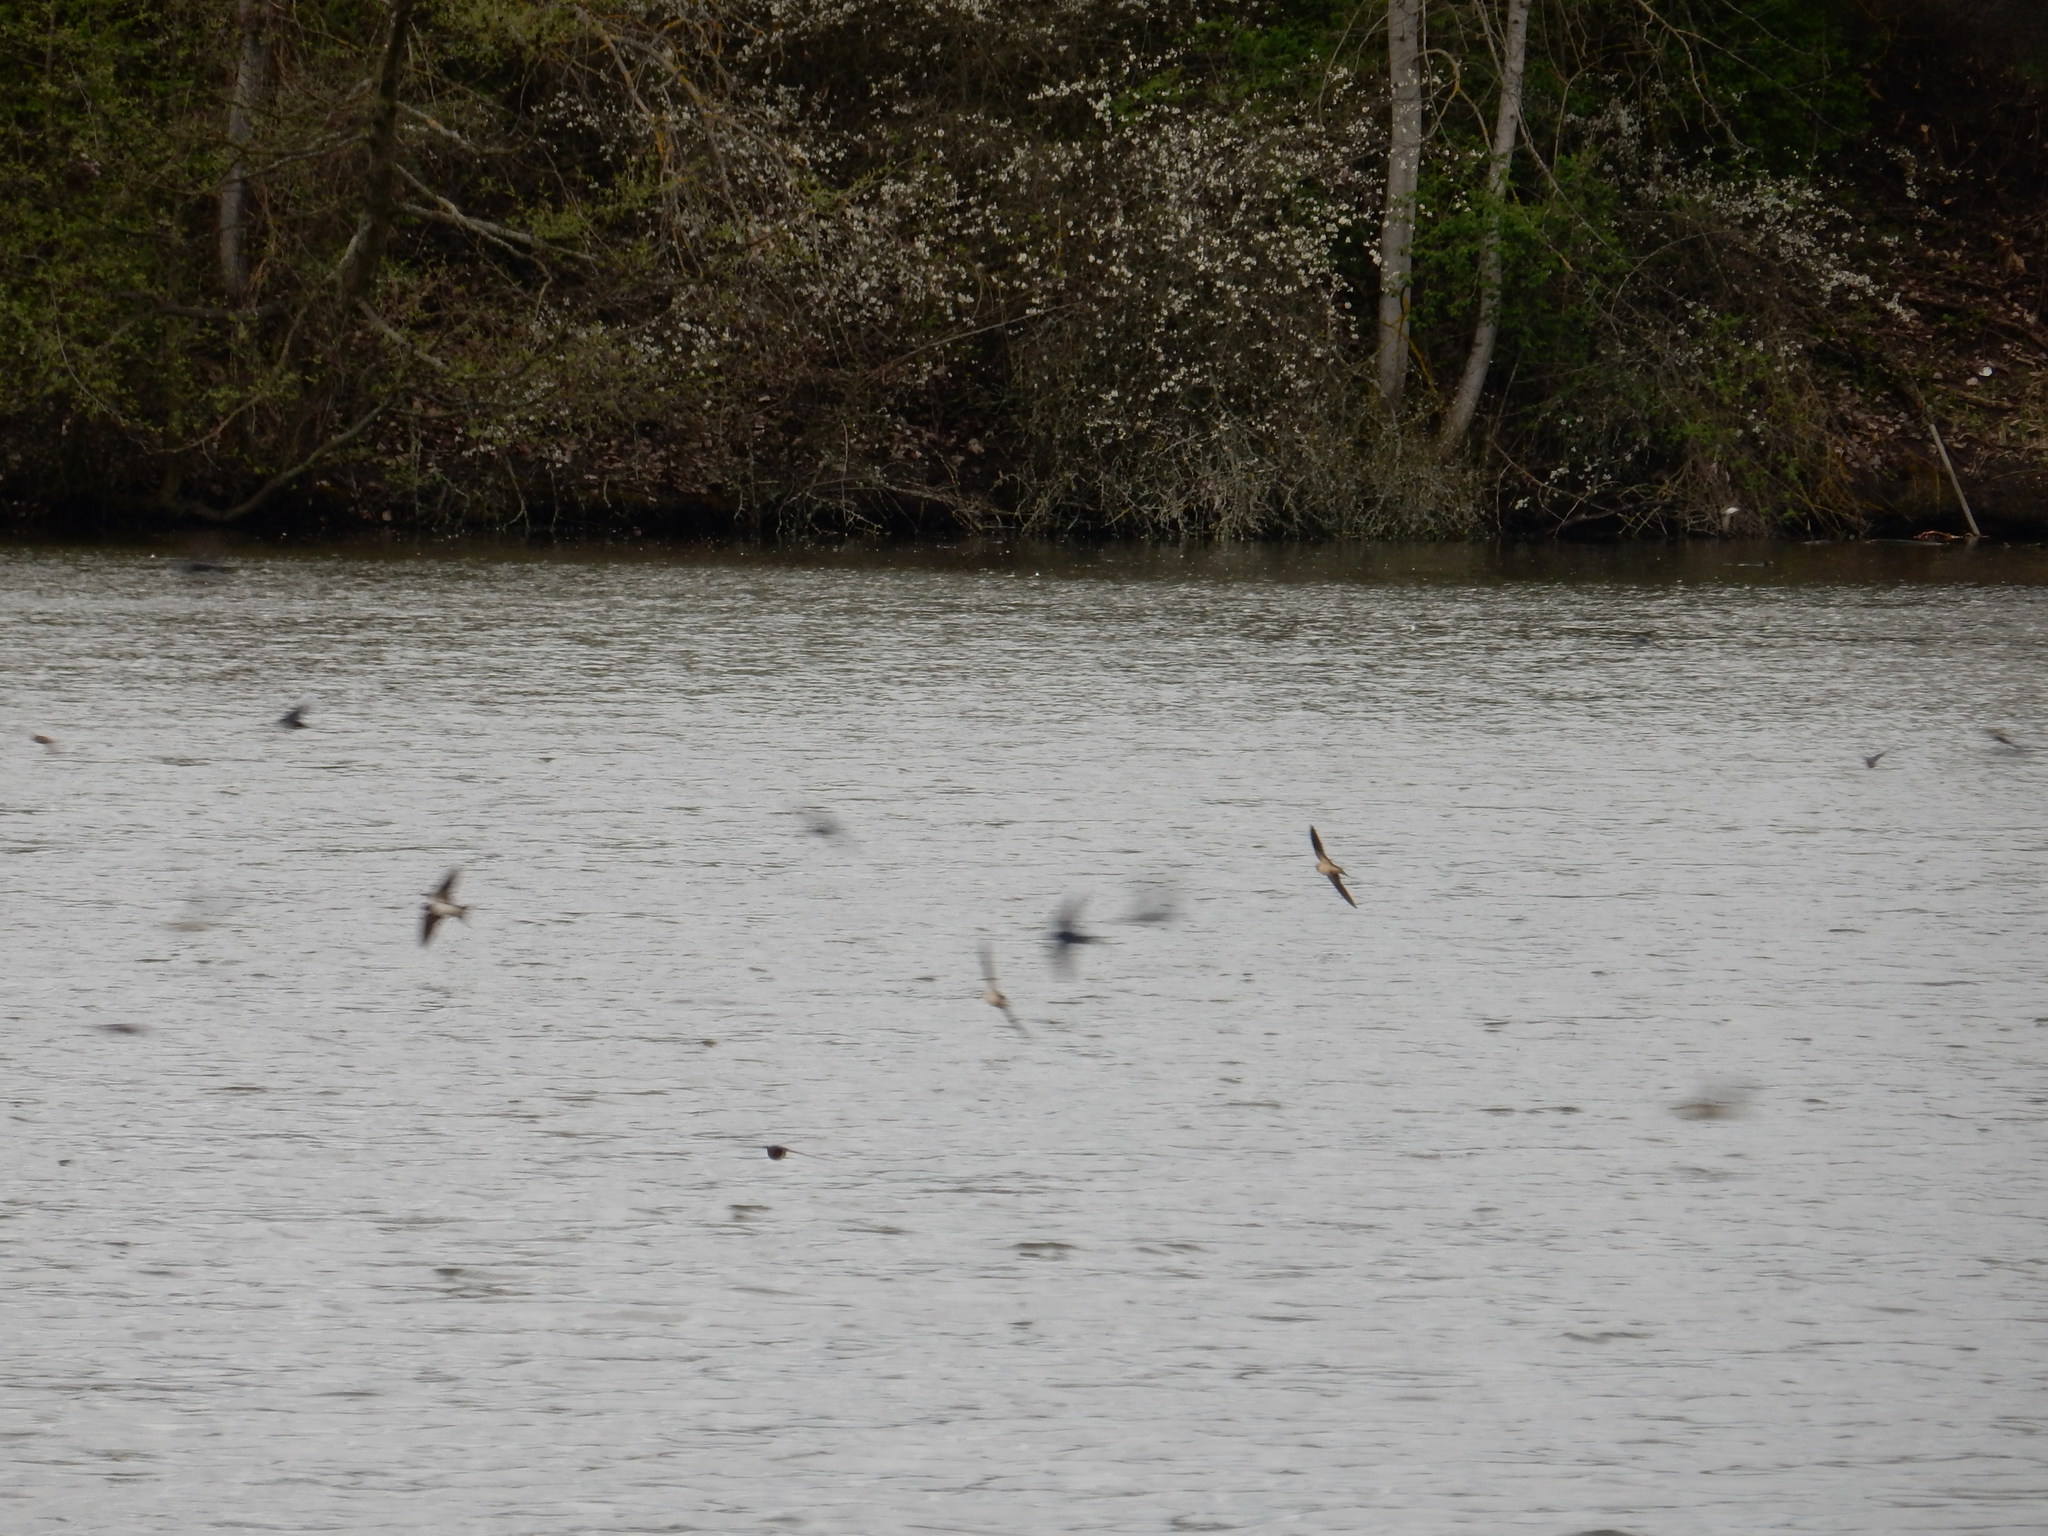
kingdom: Animalia
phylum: Chordata
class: Aves
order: Passeriformes
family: Hirundinidae
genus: Hirundo
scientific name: Hirundo rustica
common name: Barn swallow
